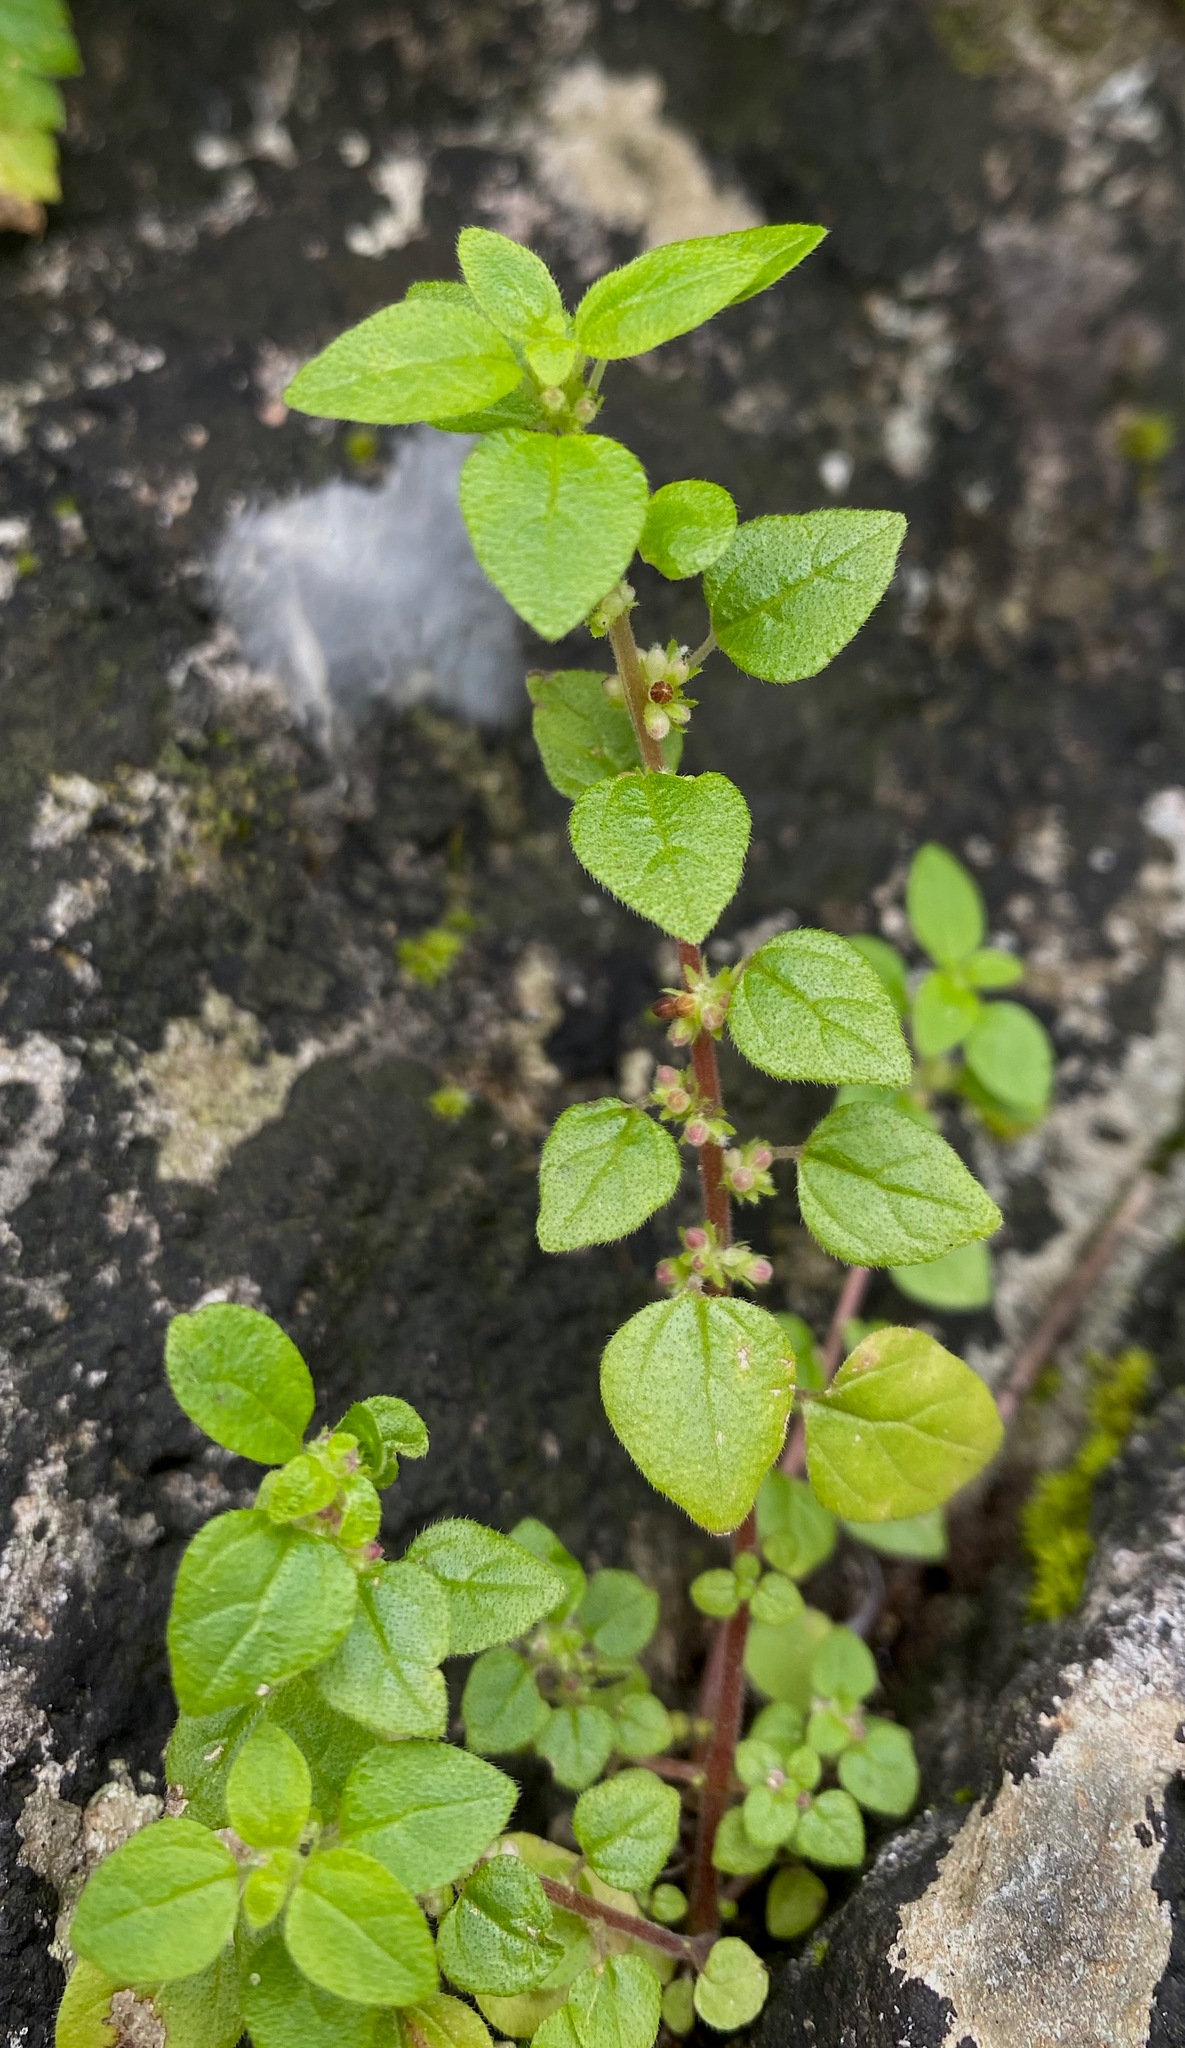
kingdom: Plantae
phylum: Tracheophyta
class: Magnoliopsida
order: Rosales
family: Urticaceae
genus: Parietaria
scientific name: Parietaria lusitanica
